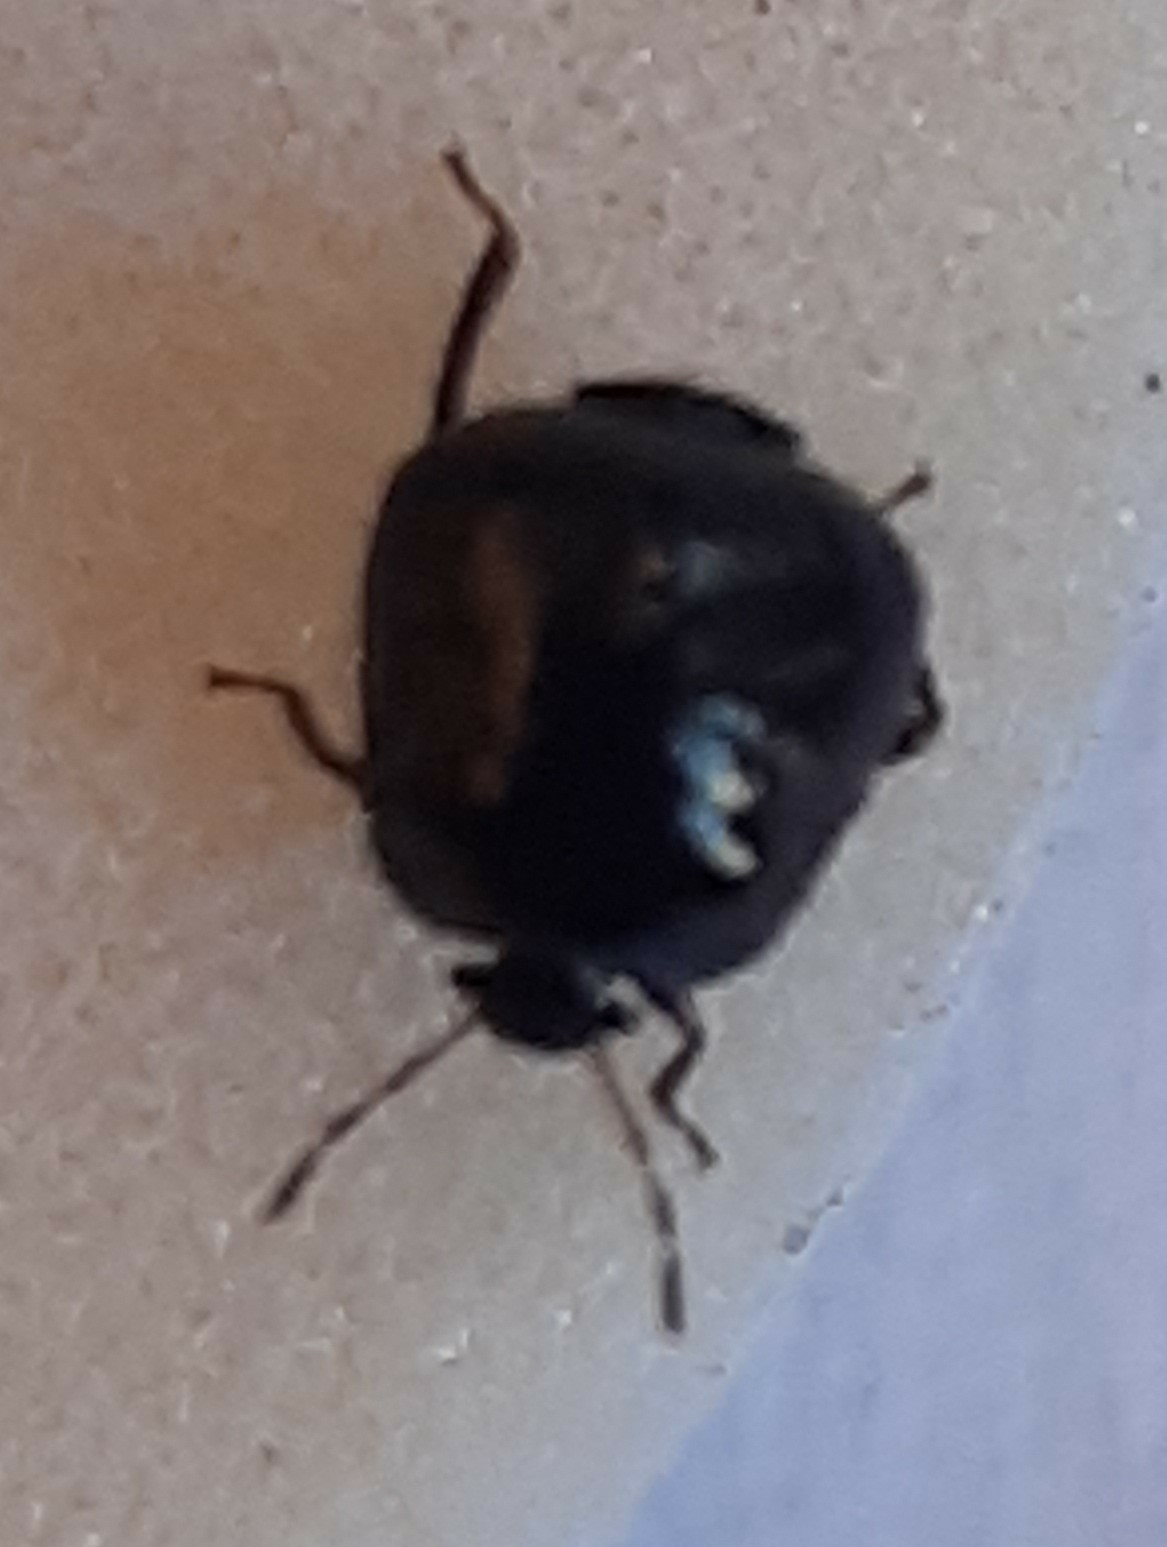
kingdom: Animalia
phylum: Arthropoda
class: Insecta
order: Hemiptera
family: Plataspidae
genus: Coptosoma
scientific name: Coptosoma scutellatum
